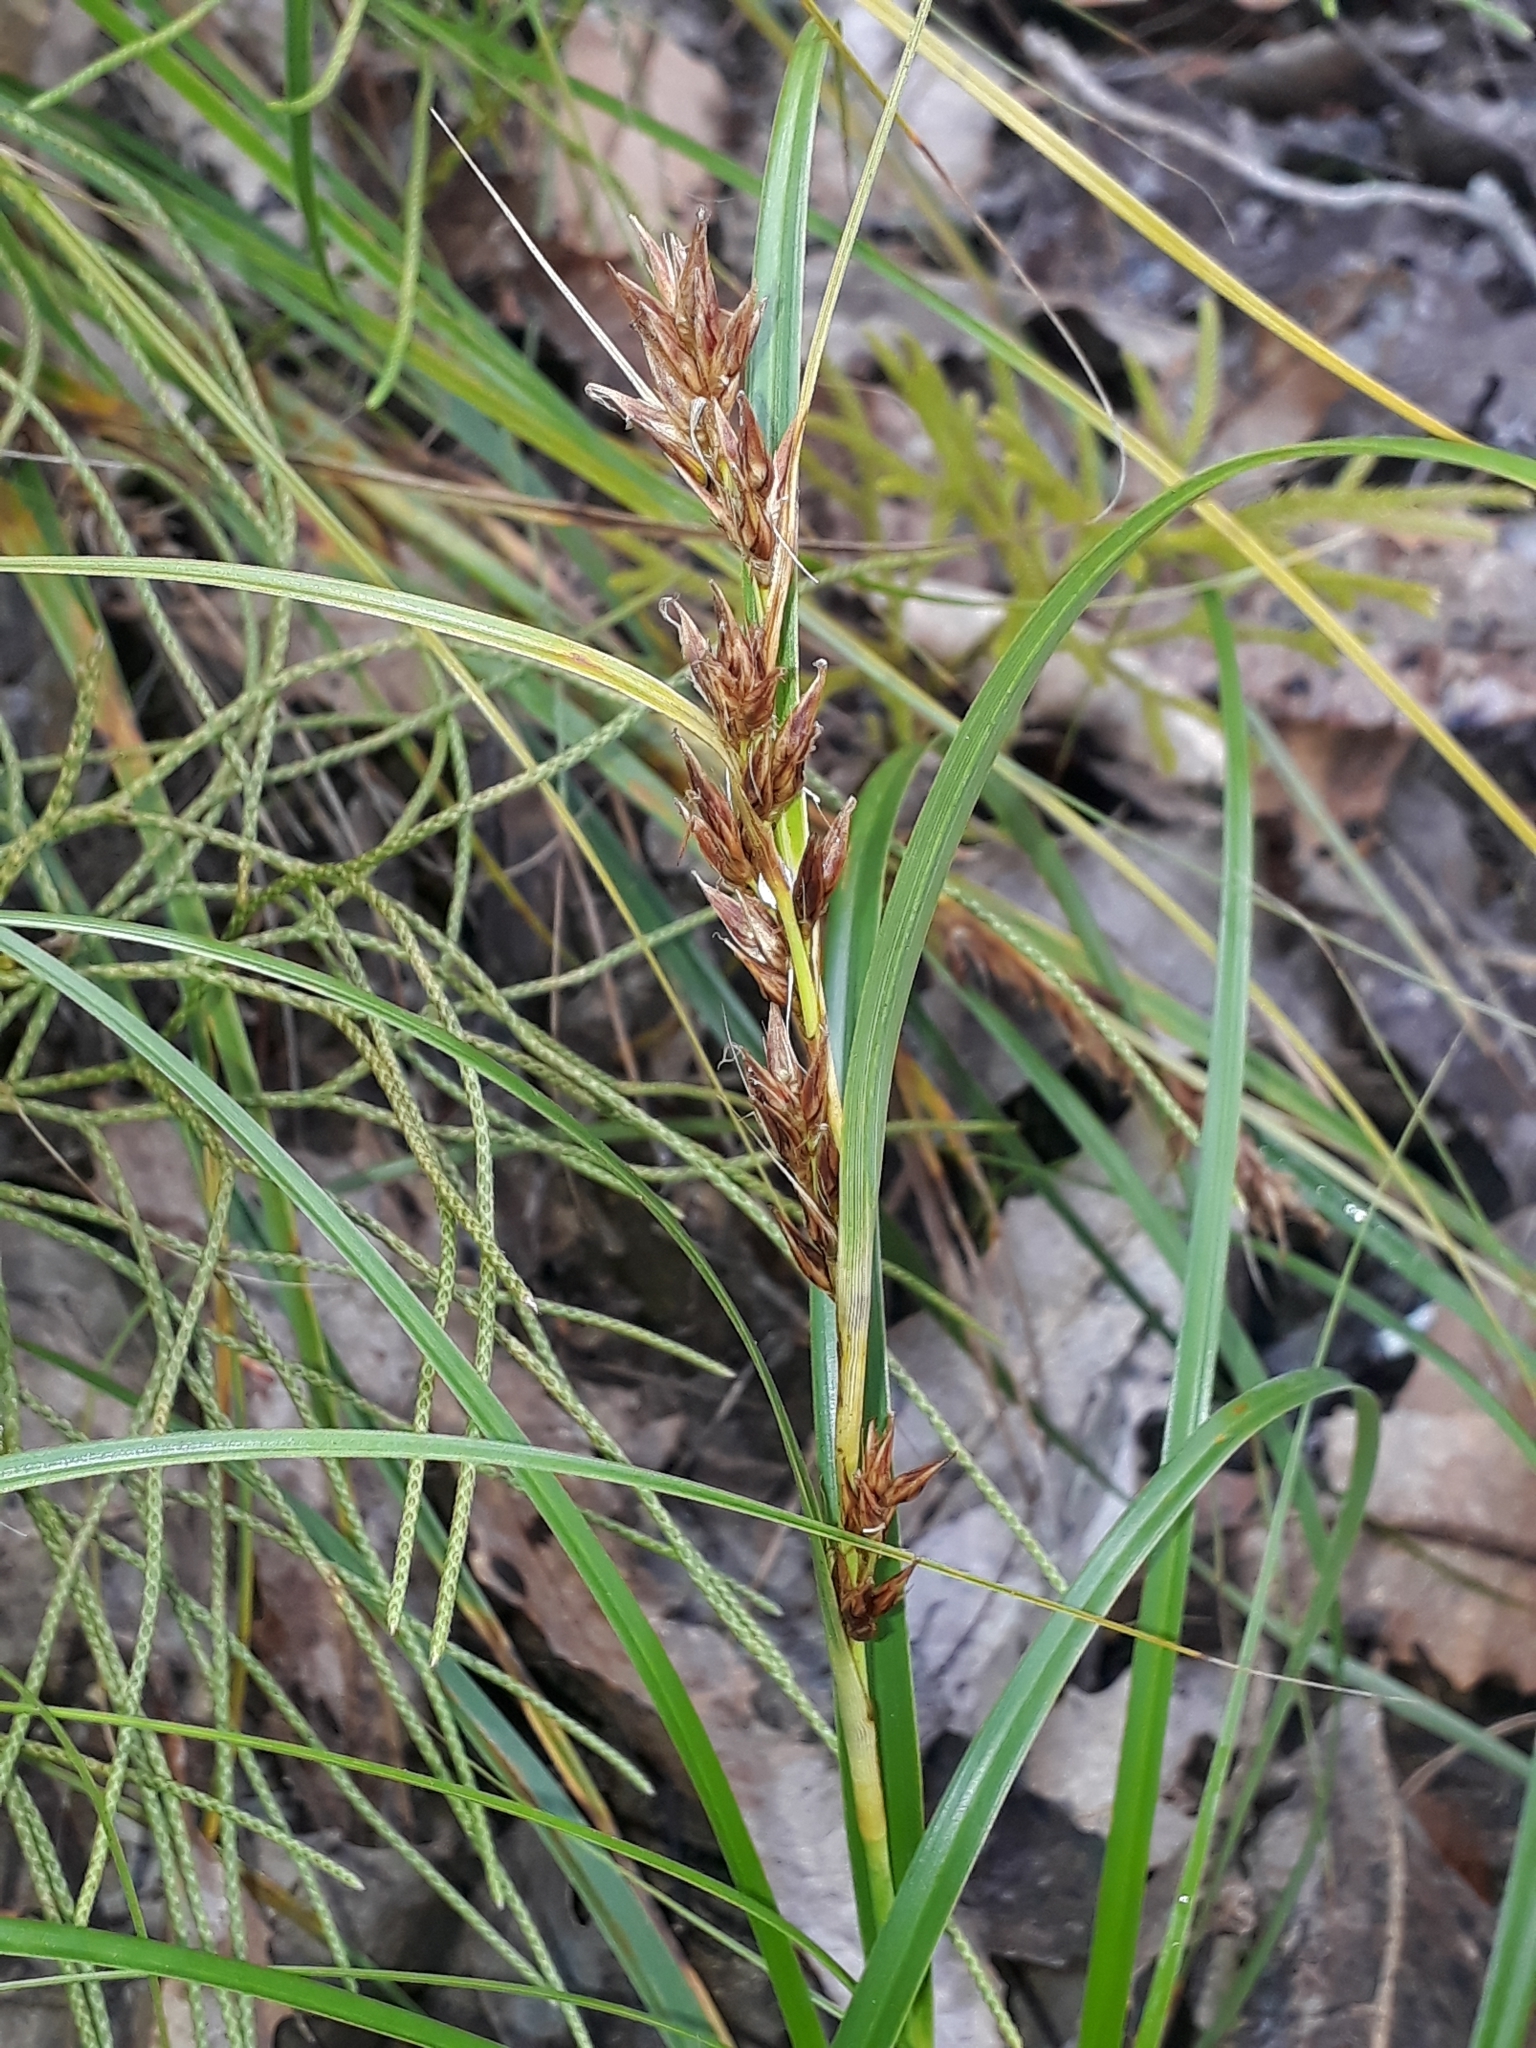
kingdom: Plantae
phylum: Tracheophyta
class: Liliopsida
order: Poales
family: Cyperaceae
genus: Morelotia
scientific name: Morelotia affinis
